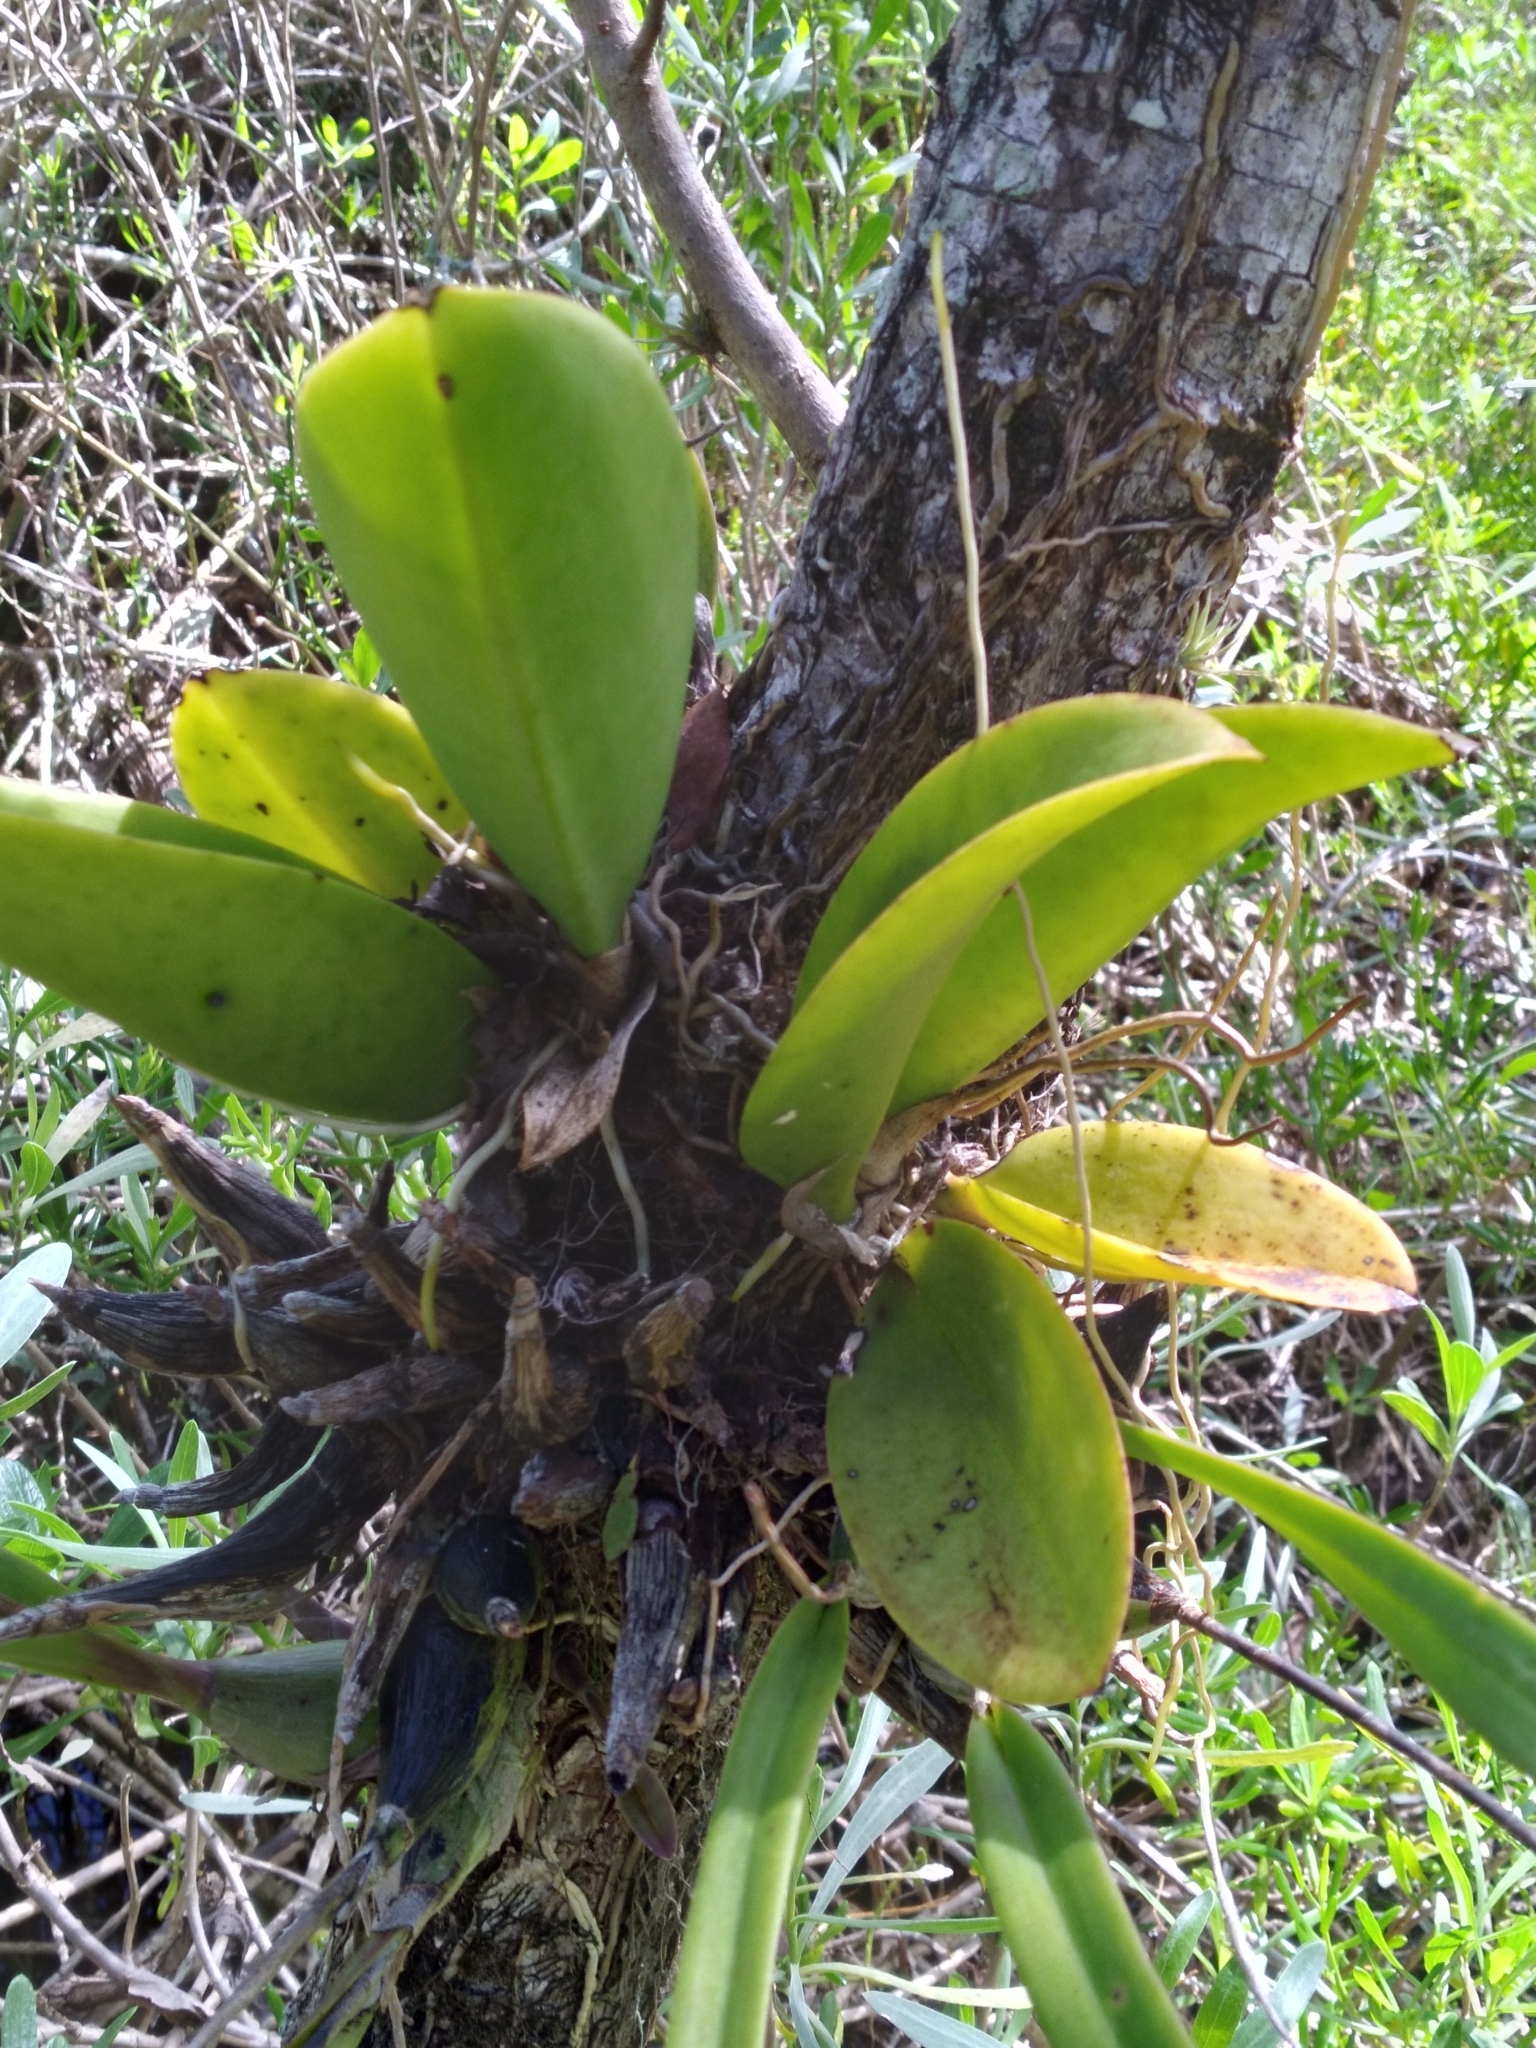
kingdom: Plantae
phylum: Tracheophyta
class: Liliopsida
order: Asparagales
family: Orchidaceae
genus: Trichocentrum
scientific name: Trichocentrum undulatum
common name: Cape sable orchid
